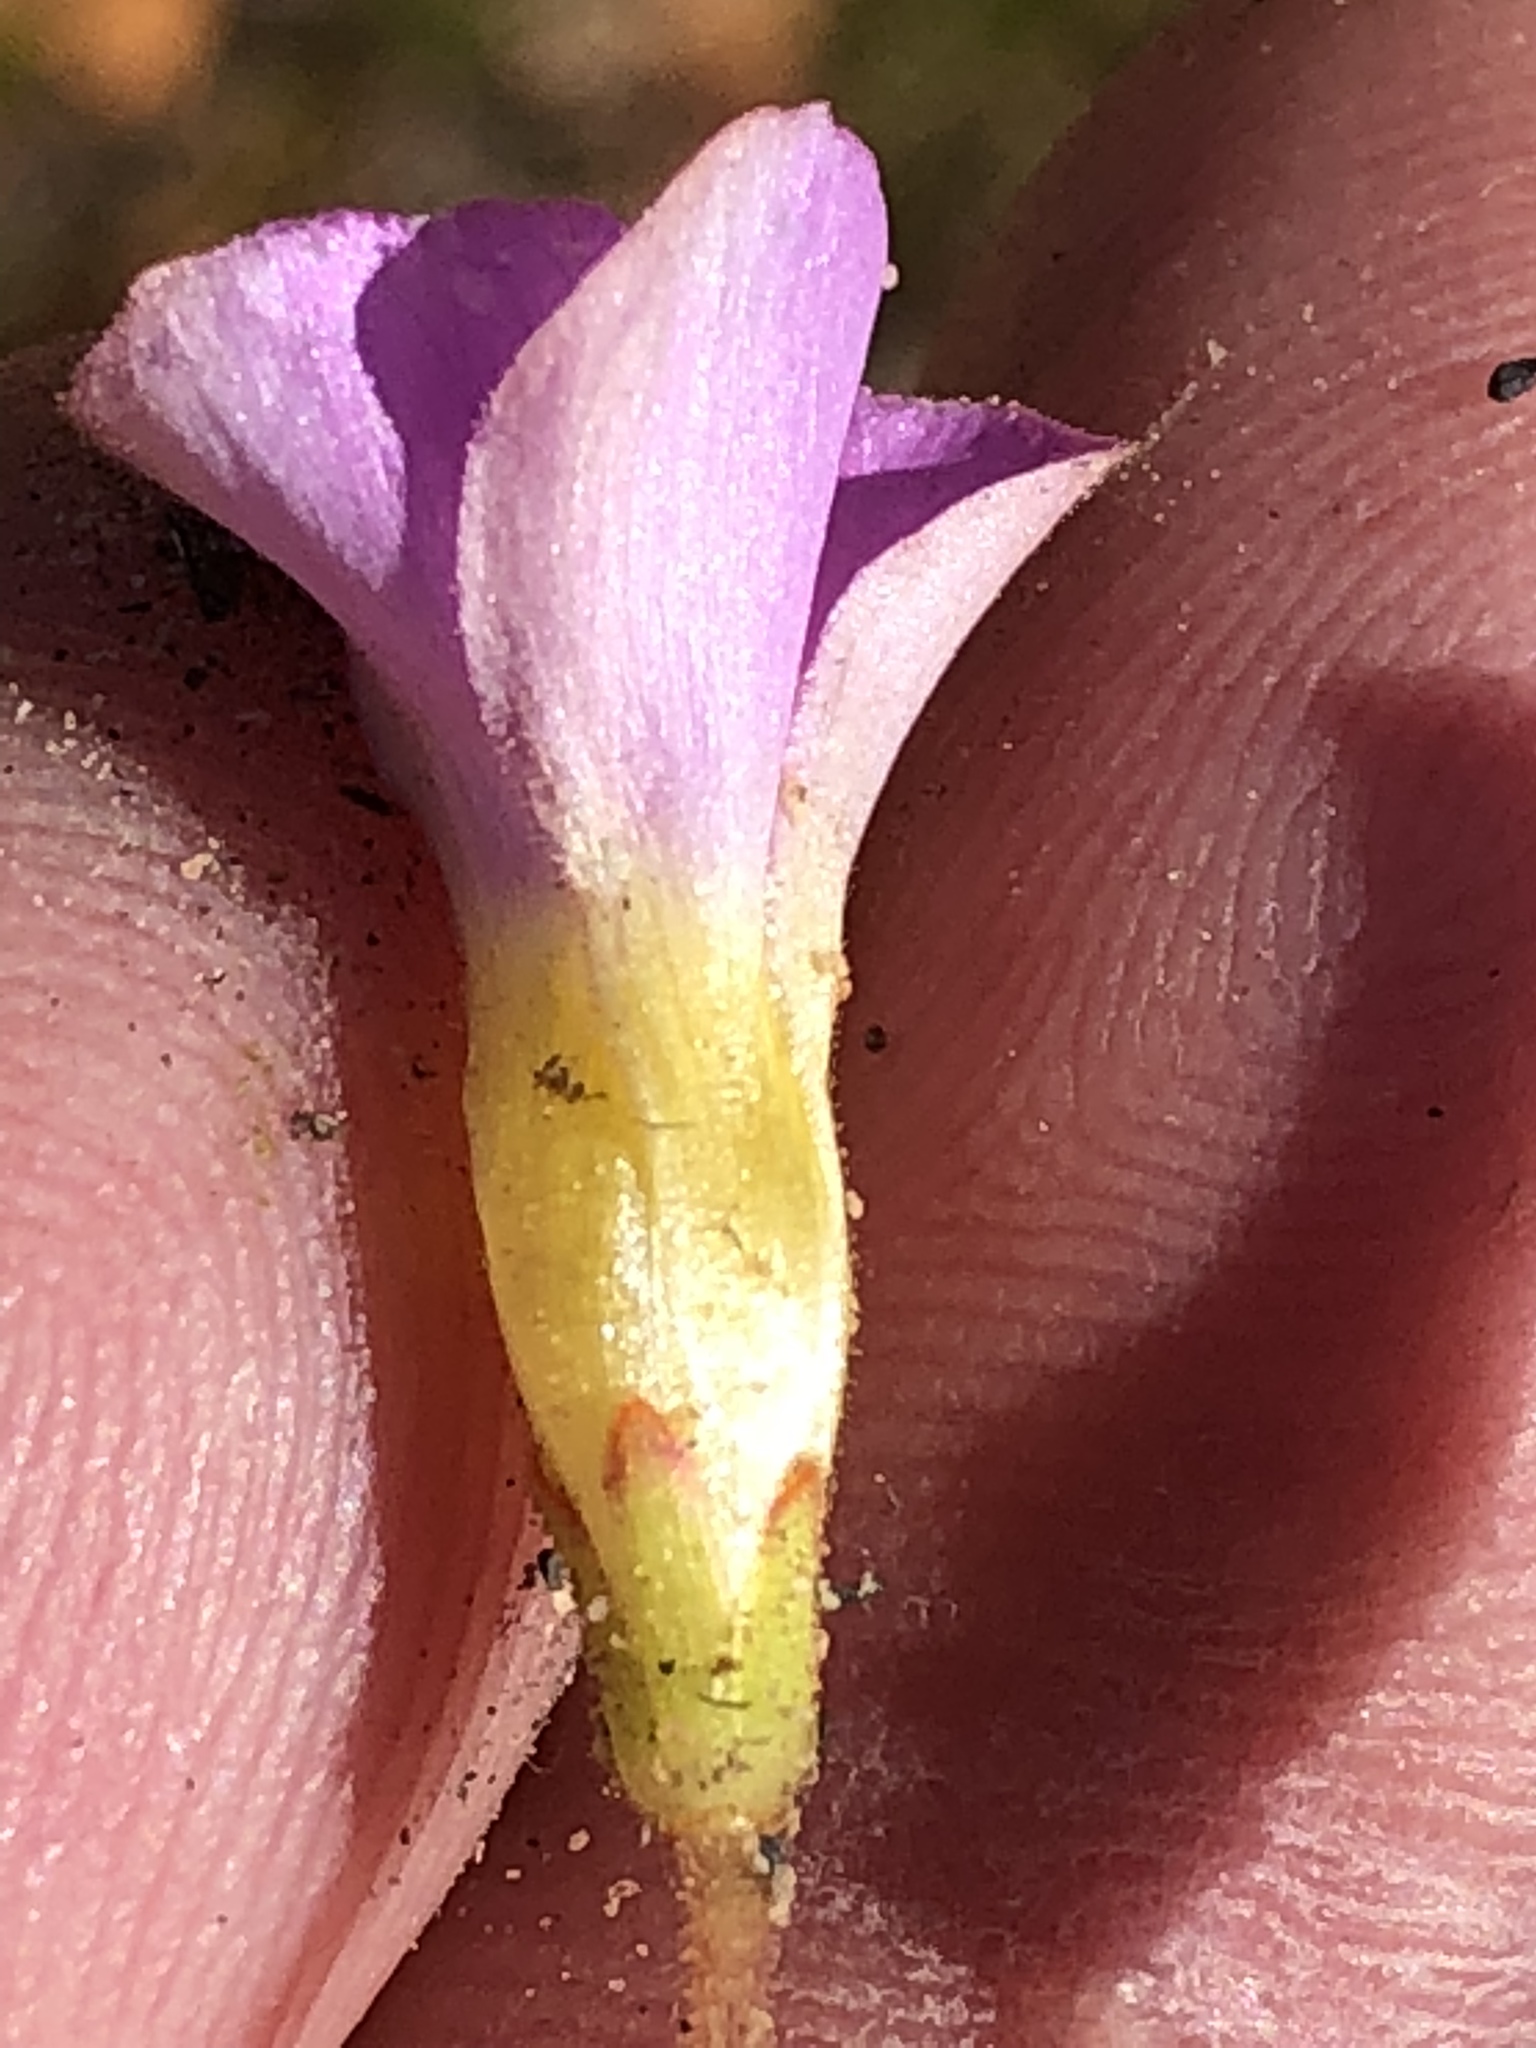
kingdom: Plantae
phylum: Tracheophyta
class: Magnoliopsida
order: Oxalidales
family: Oxalidaceae
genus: Oxalis
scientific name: Oxalis fergusoniae
